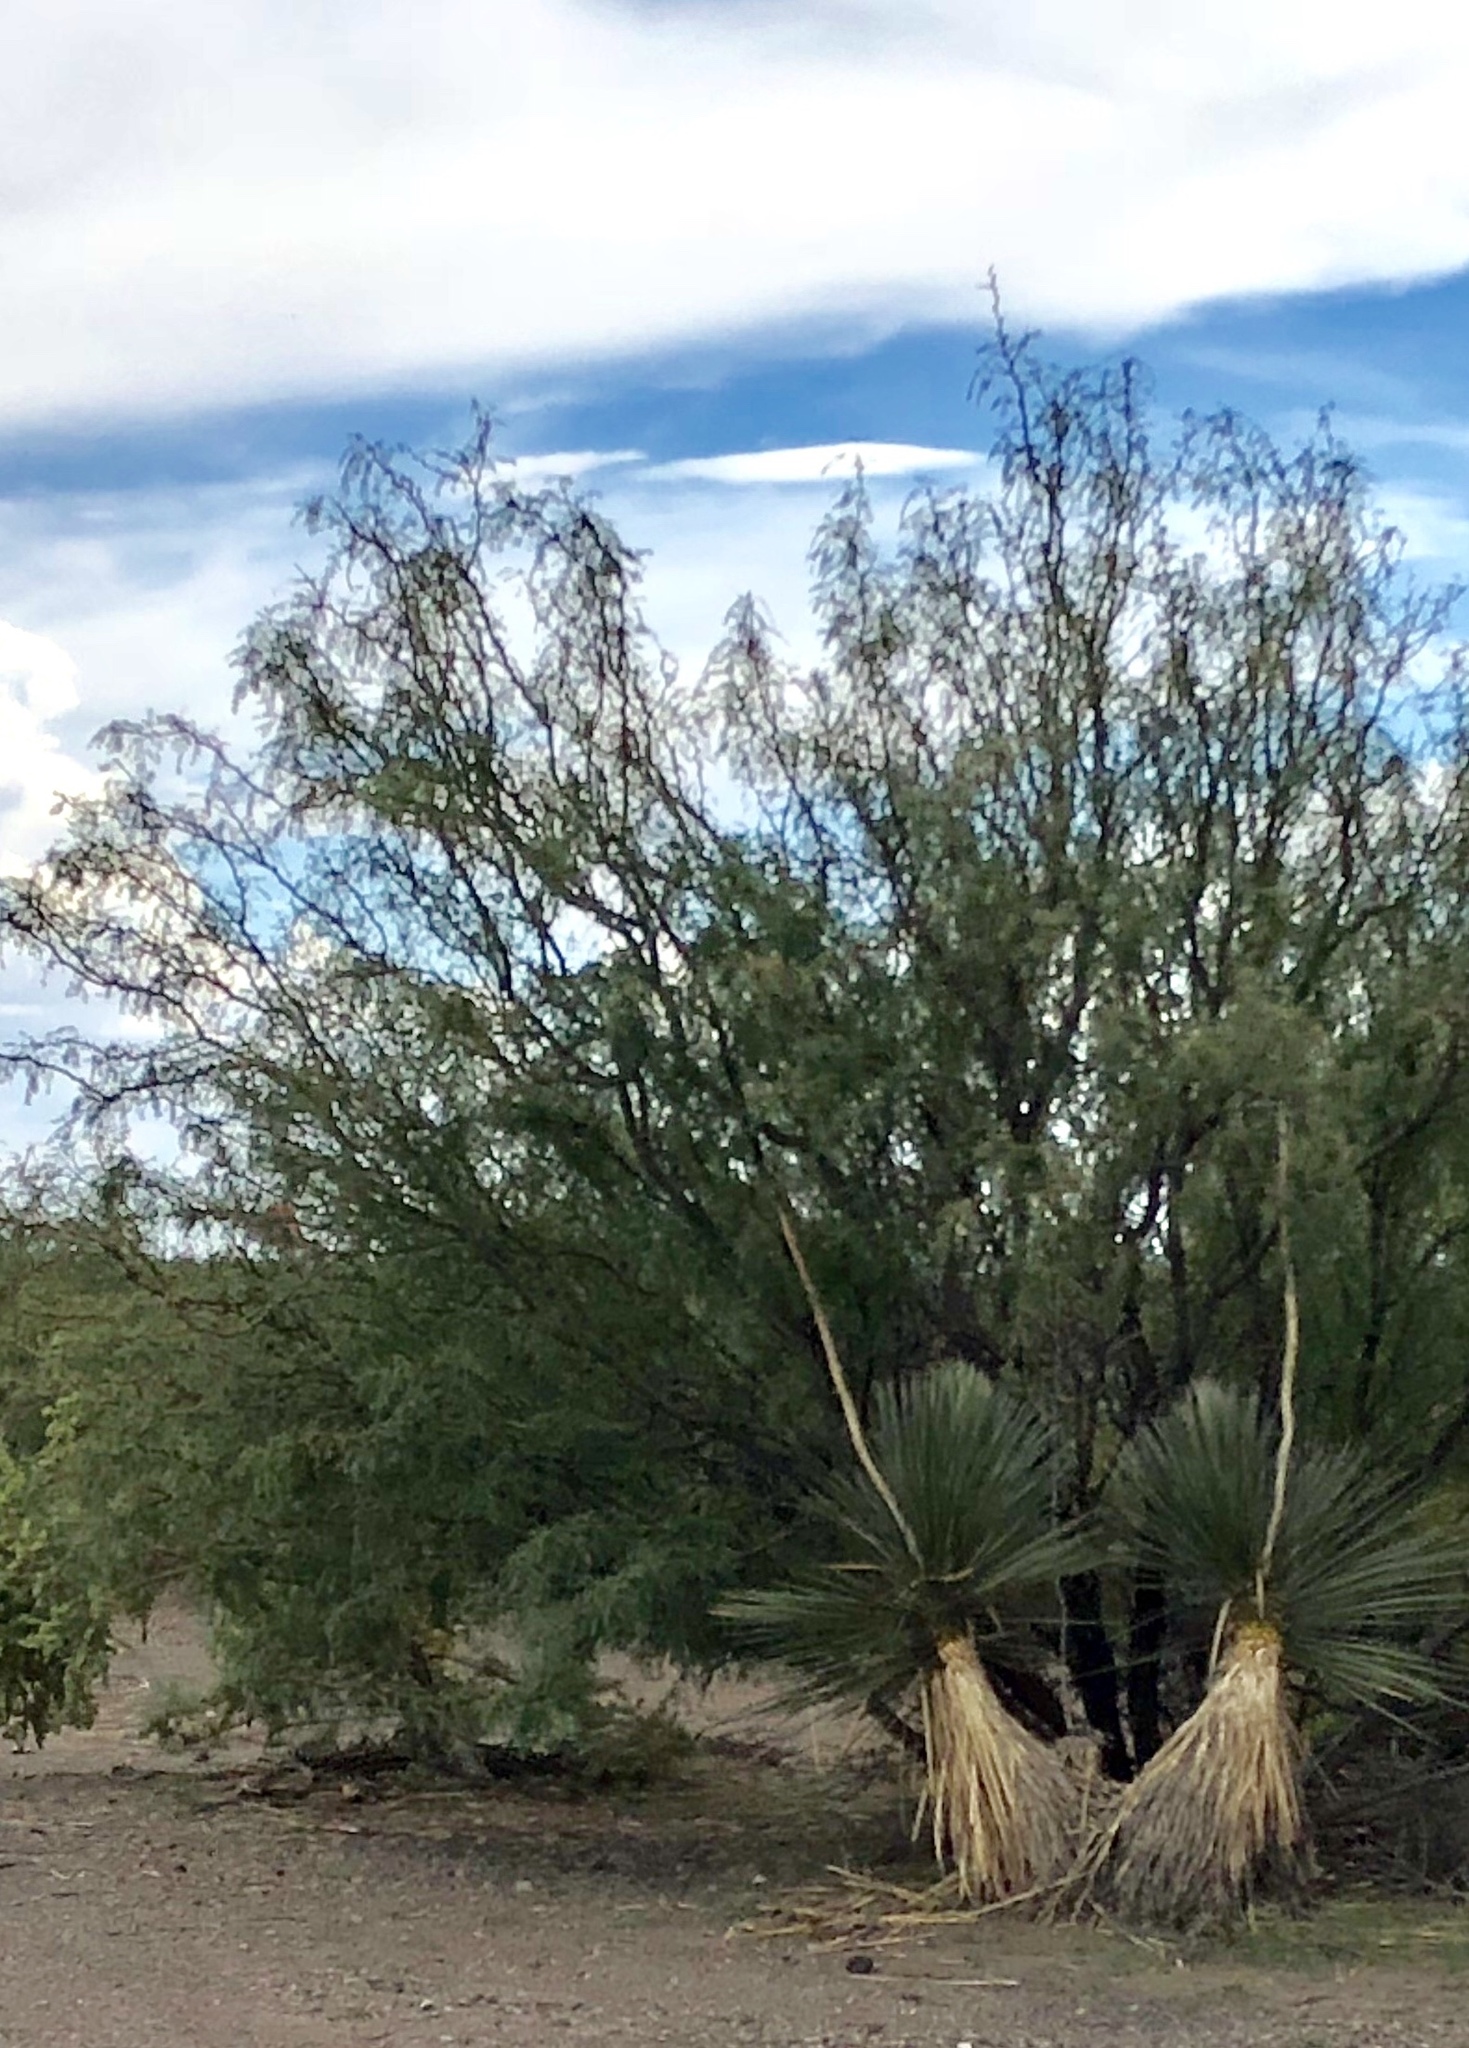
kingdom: Plantae
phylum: Tracheophyta
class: Magnoliopsida
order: Fabales
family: Fabaceae
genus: Prosopis
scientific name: Prosopis glandulosa
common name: Honey mesquite
